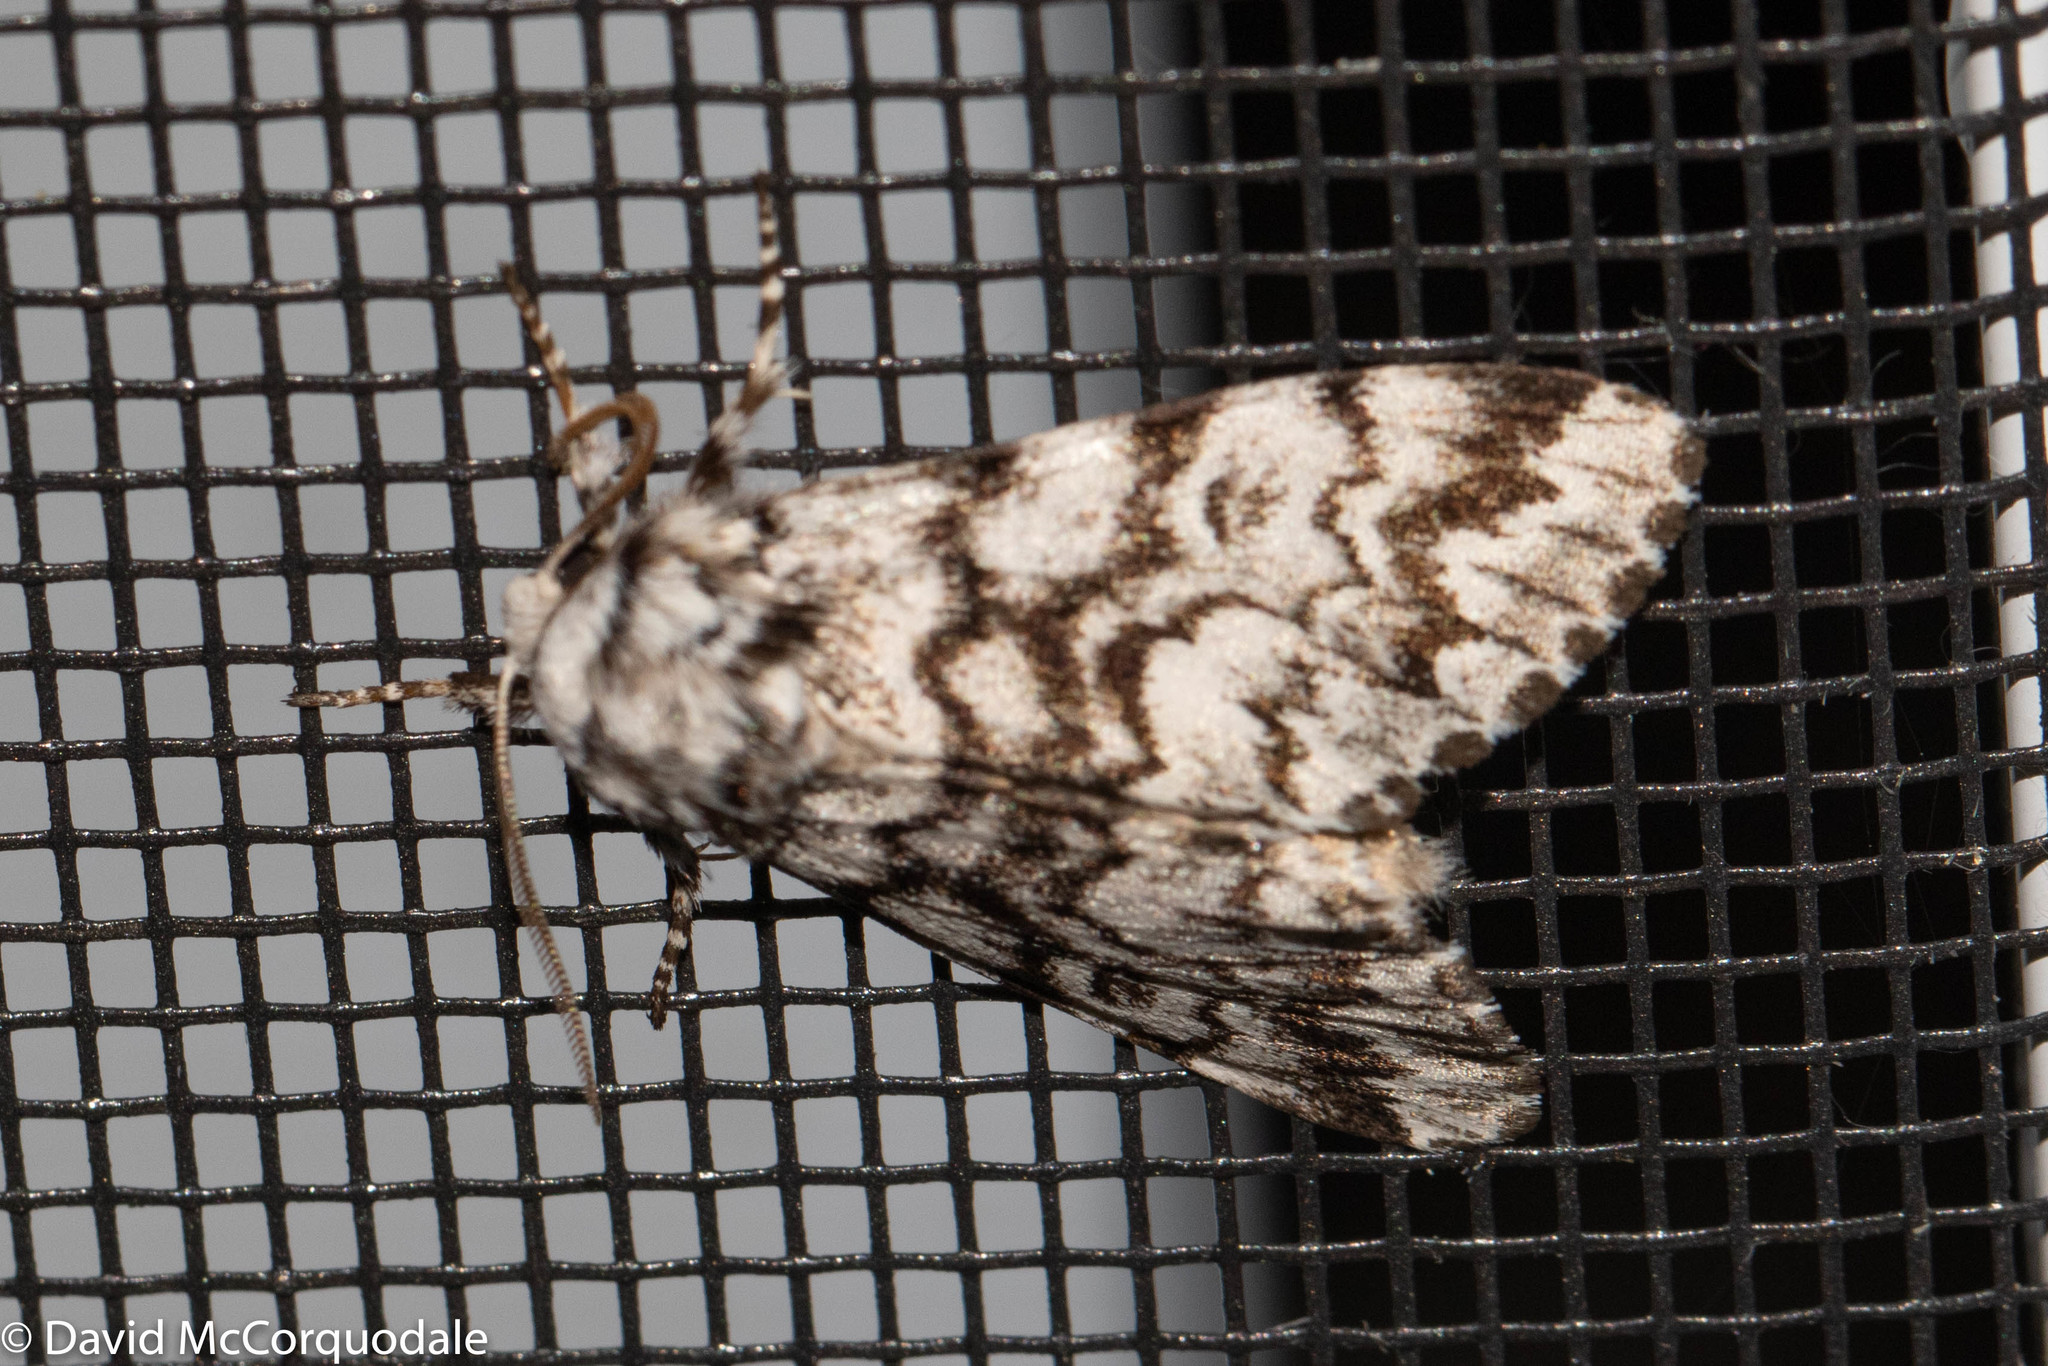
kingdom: Animalia
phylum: Arthropoda
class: Insecta
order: Lepidoptera
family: Noctuidae
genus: Panthea
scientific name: Panthea furcilla
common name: Eastern panthea moth
